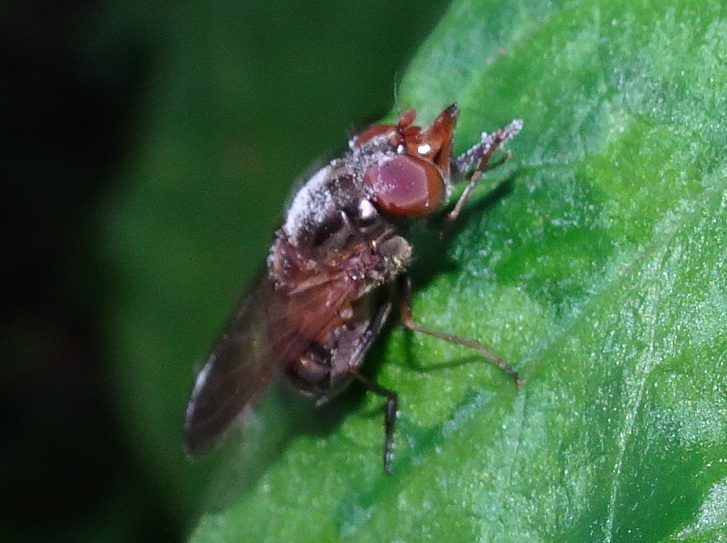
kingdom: Animalia
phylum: Arthropoda
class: Insecta
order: Diptera
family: Syrphidae
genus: Rhingia
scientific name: Rhingia nasica
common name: American snout fly
